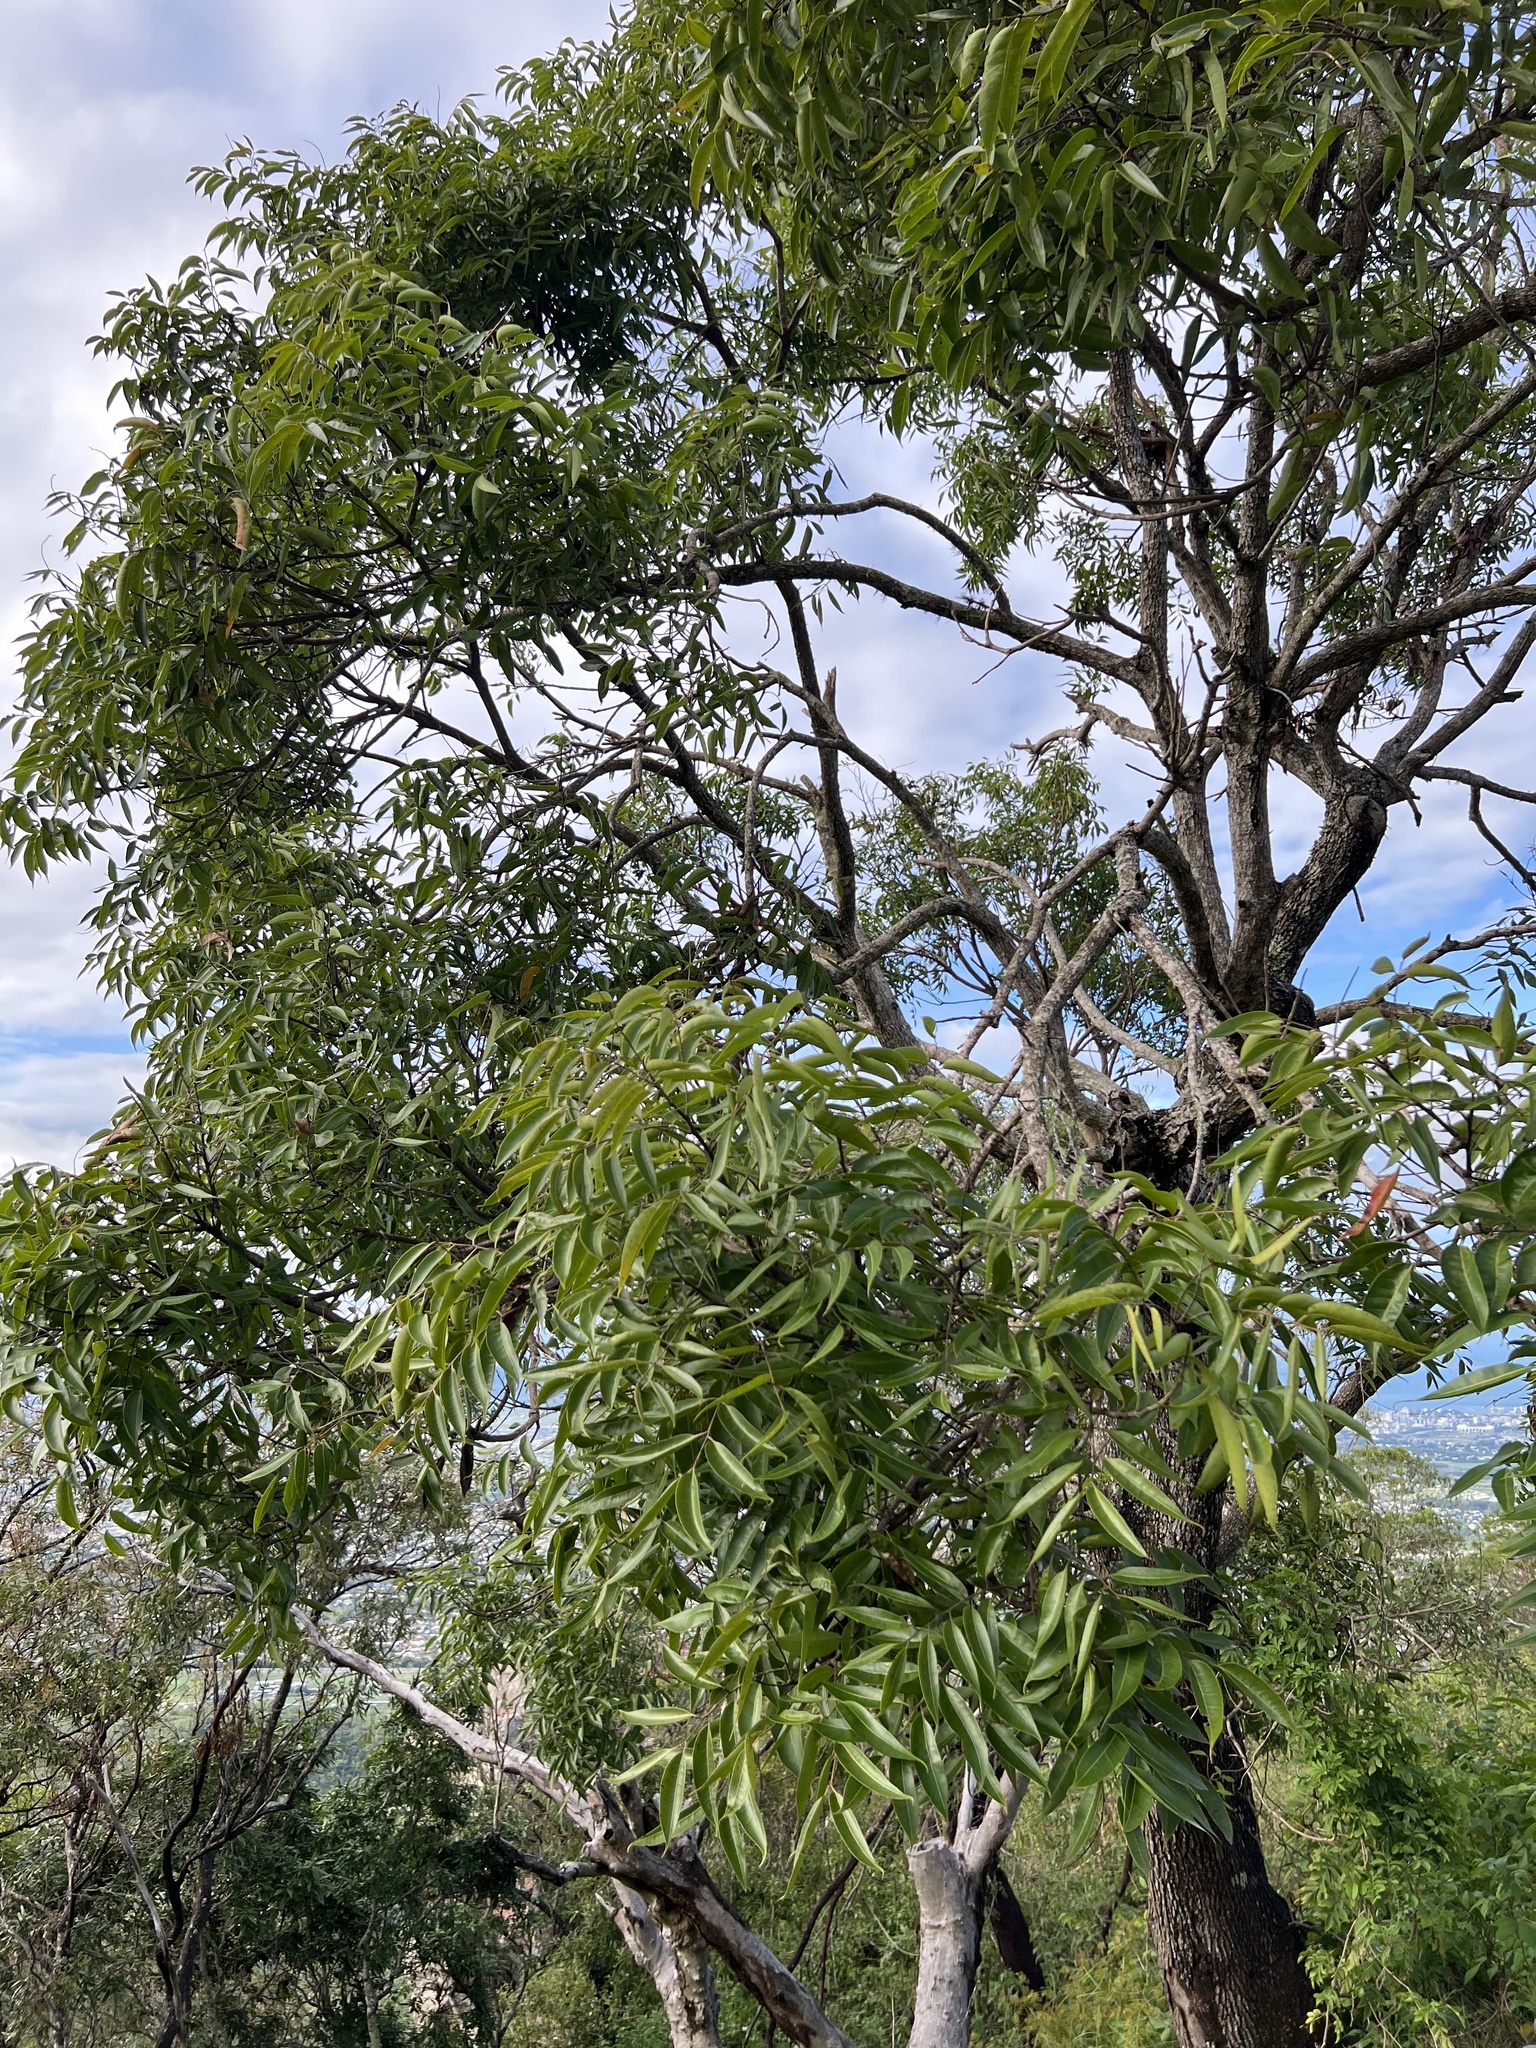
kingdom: Plantae
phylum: Tracheophyta
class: Magnoliopsida
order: Sapindales
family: Anacardiaceae
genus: Euroschinus
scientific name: Euroschinus falcatus
